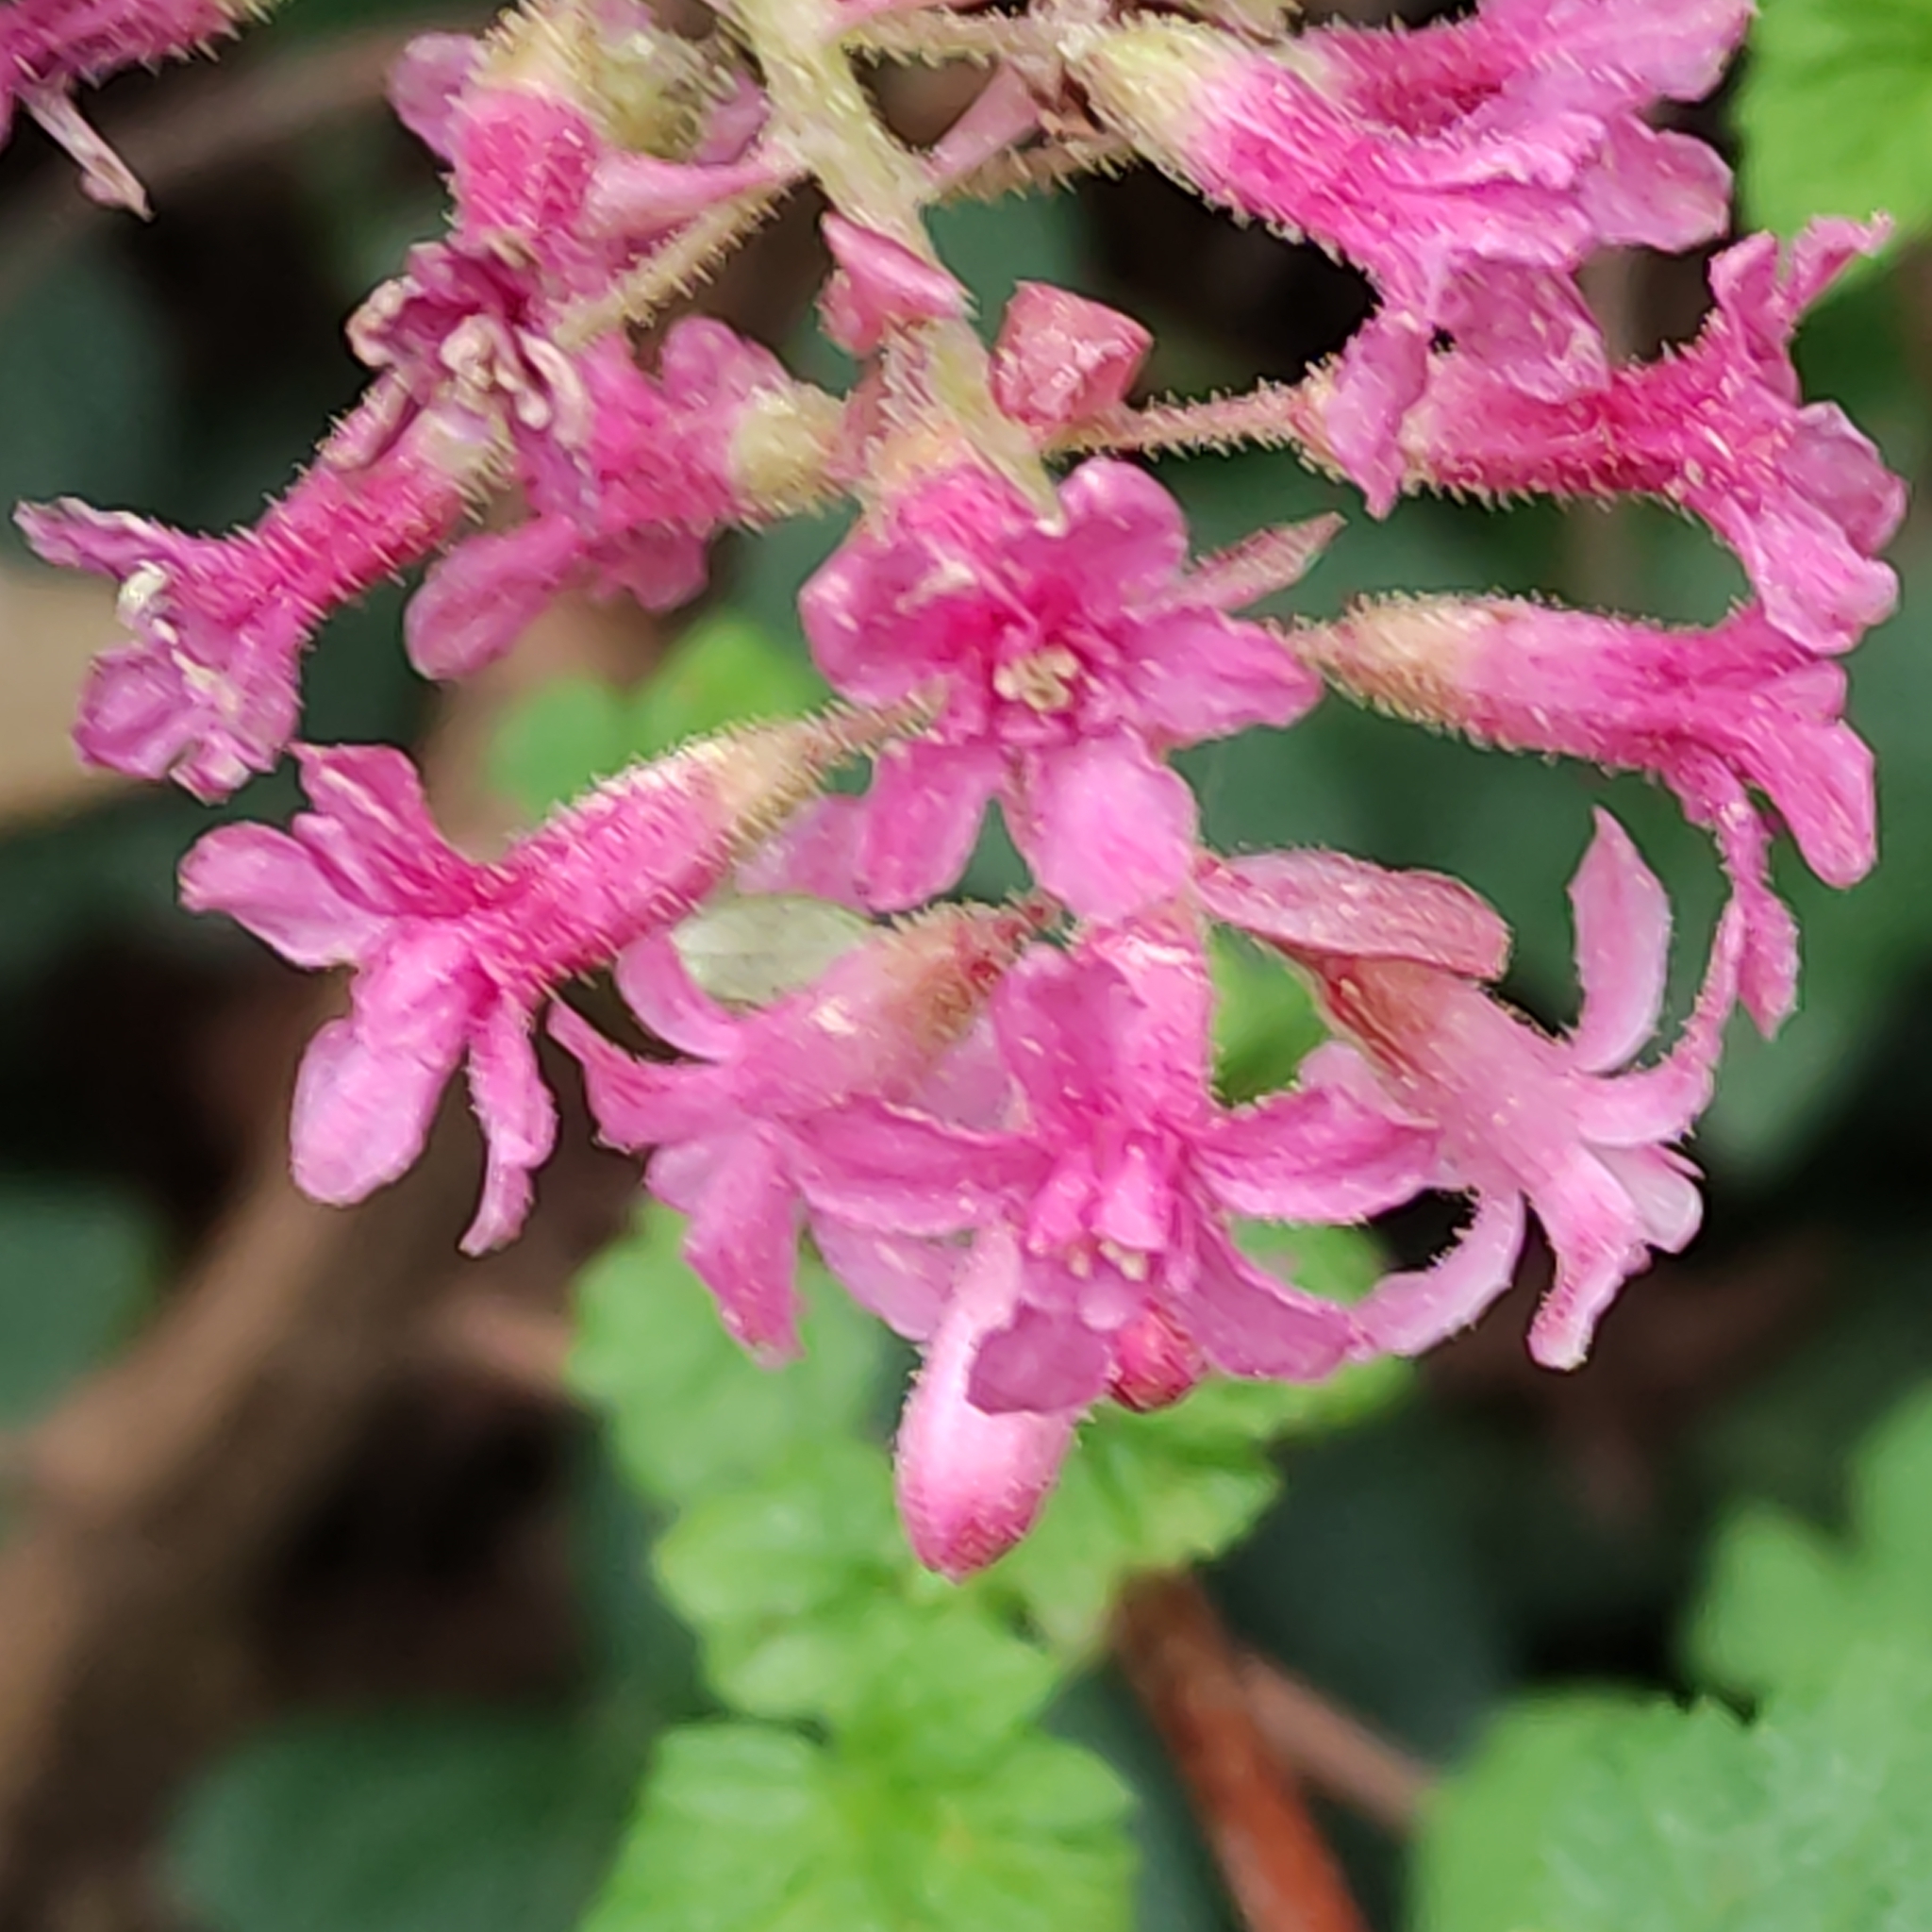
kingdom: Plantae
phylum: Tracheophyta
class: Magnoliopsida
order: Saxifragales
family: Grossulariaceae
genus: Ribes
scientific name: Ribes sanguineum
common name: Flowering currant
